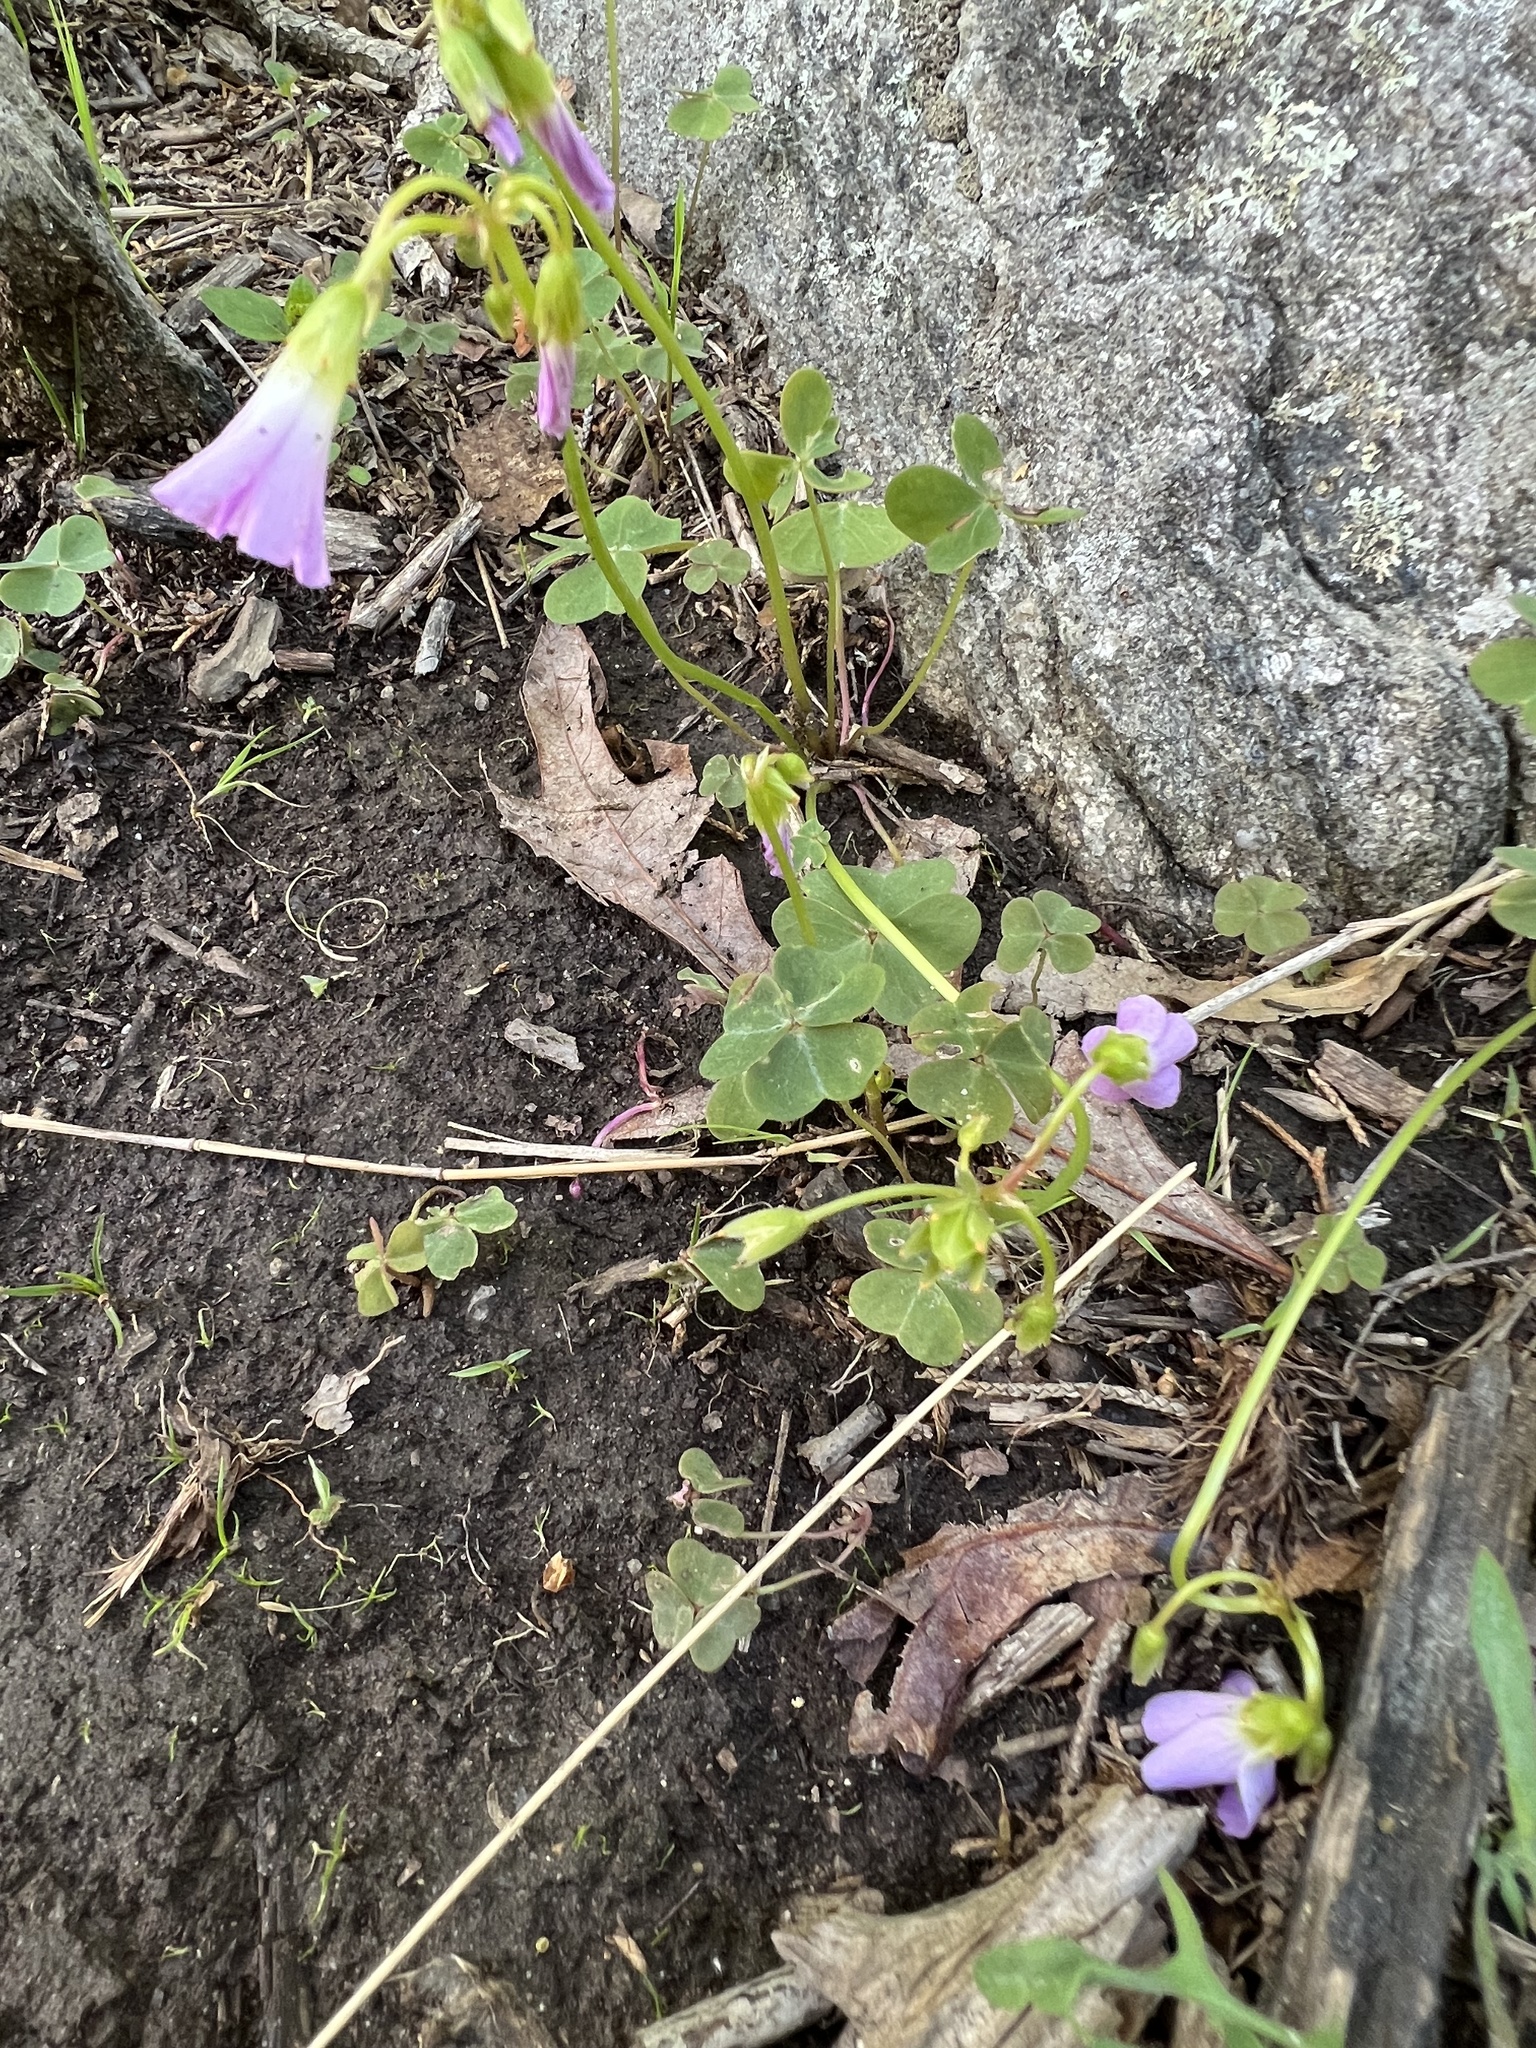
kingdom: Plantae
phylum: Tracheophyta
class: Magnoliopsida
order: Oxalidales
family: Oxalidaceae
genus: Oxalis
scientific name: Oxalis violacea
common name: Violet wood-sorrel
